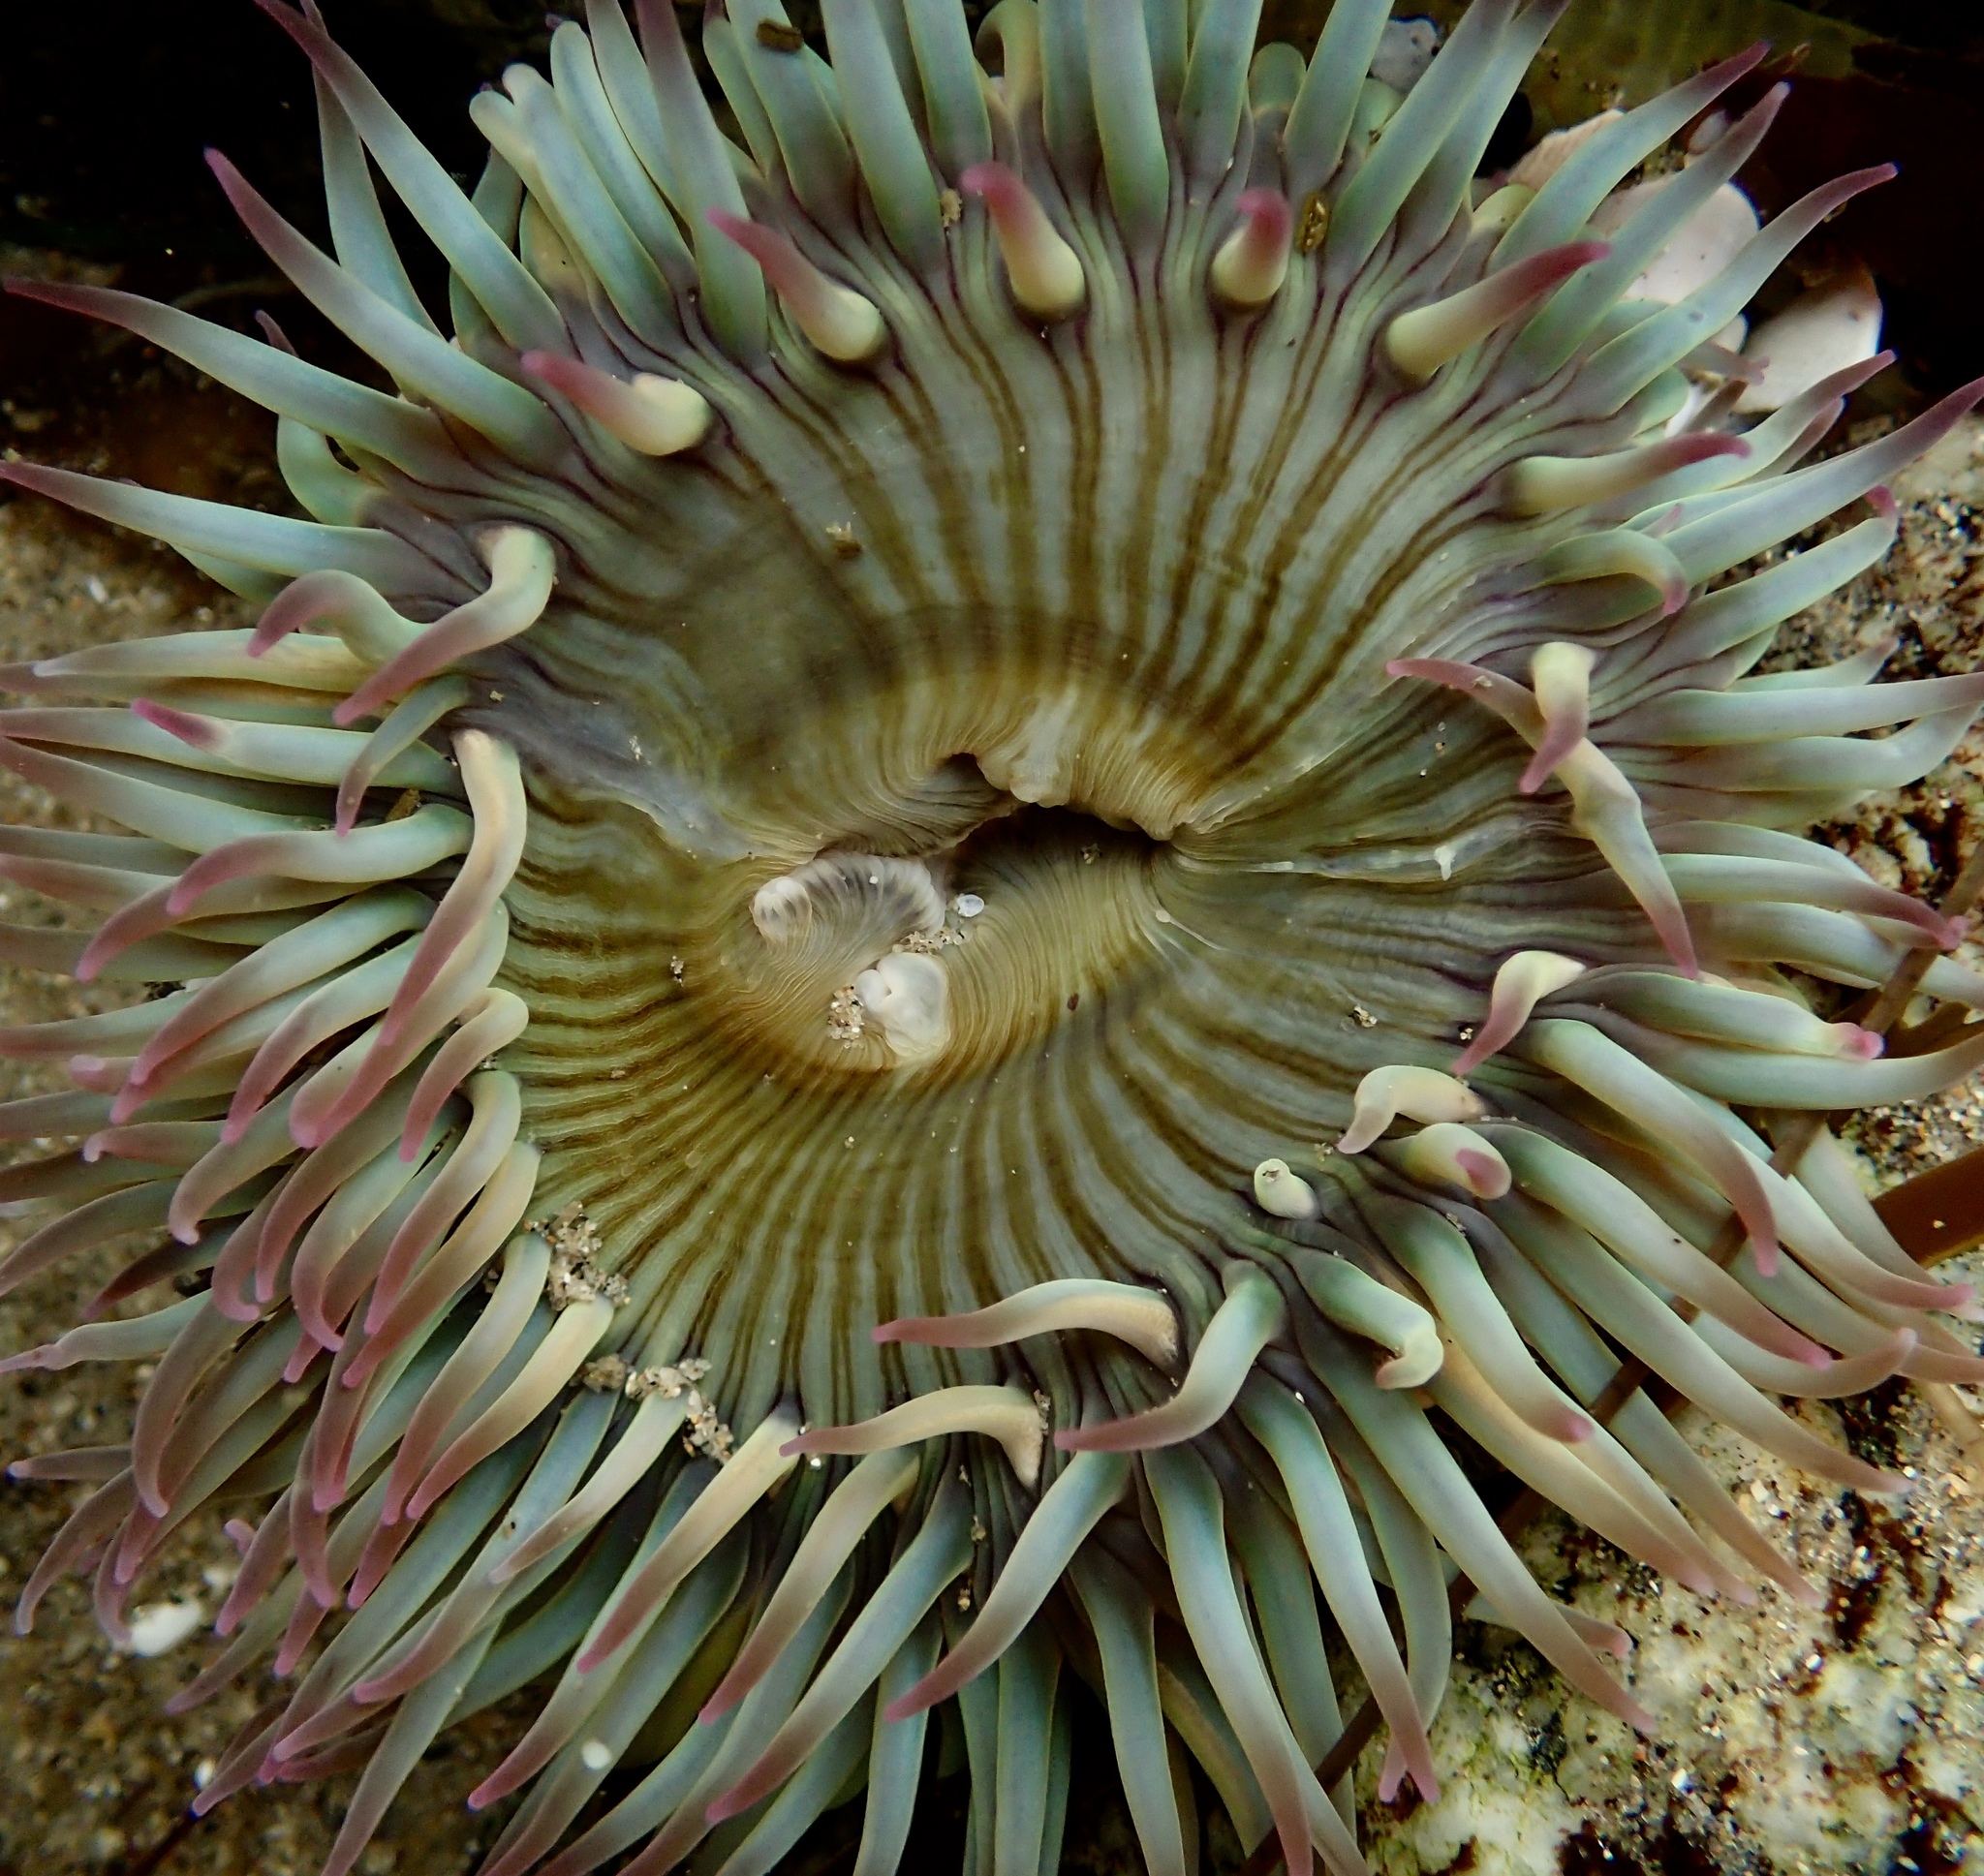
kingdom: Animalia
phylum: Cnidaria
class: Anthozoa
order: Actiniaria
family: Actiniidae
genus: Anthopleura
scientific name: Anthopleura sola
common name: Sun anemone
